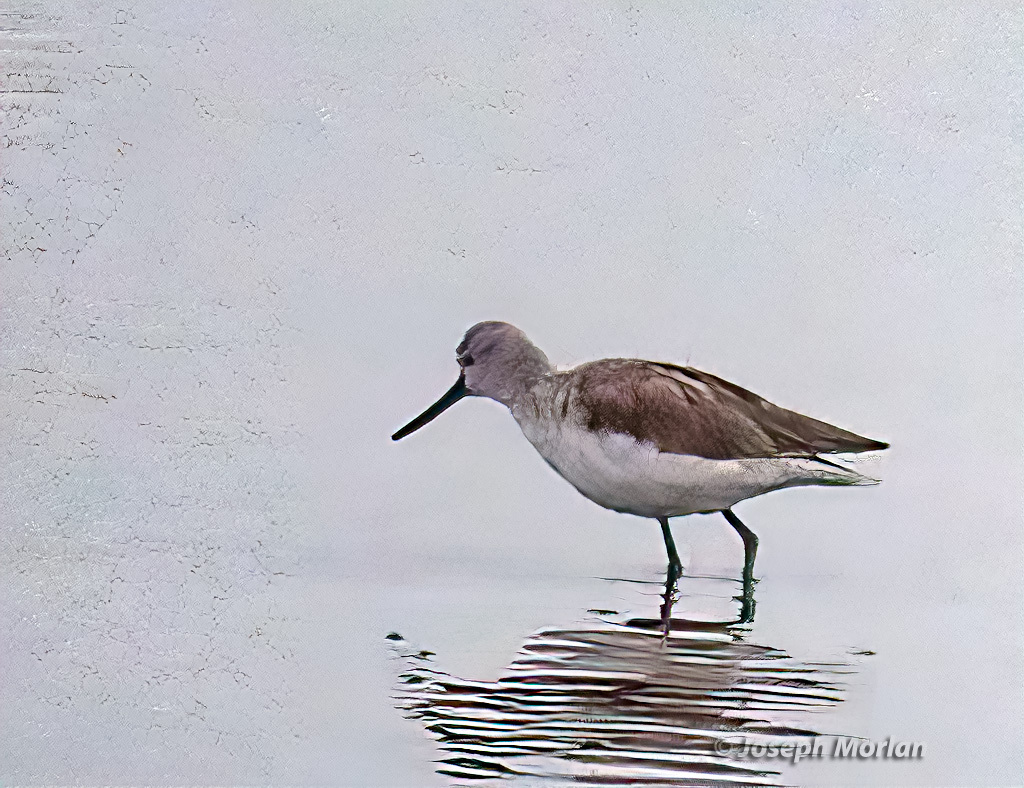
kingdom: Animalia
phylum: Chordata
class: Aves
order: Charadriiformes
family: Scolopacidae
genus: Tringa
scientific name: Tringa nebularia
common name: Common greenshank
